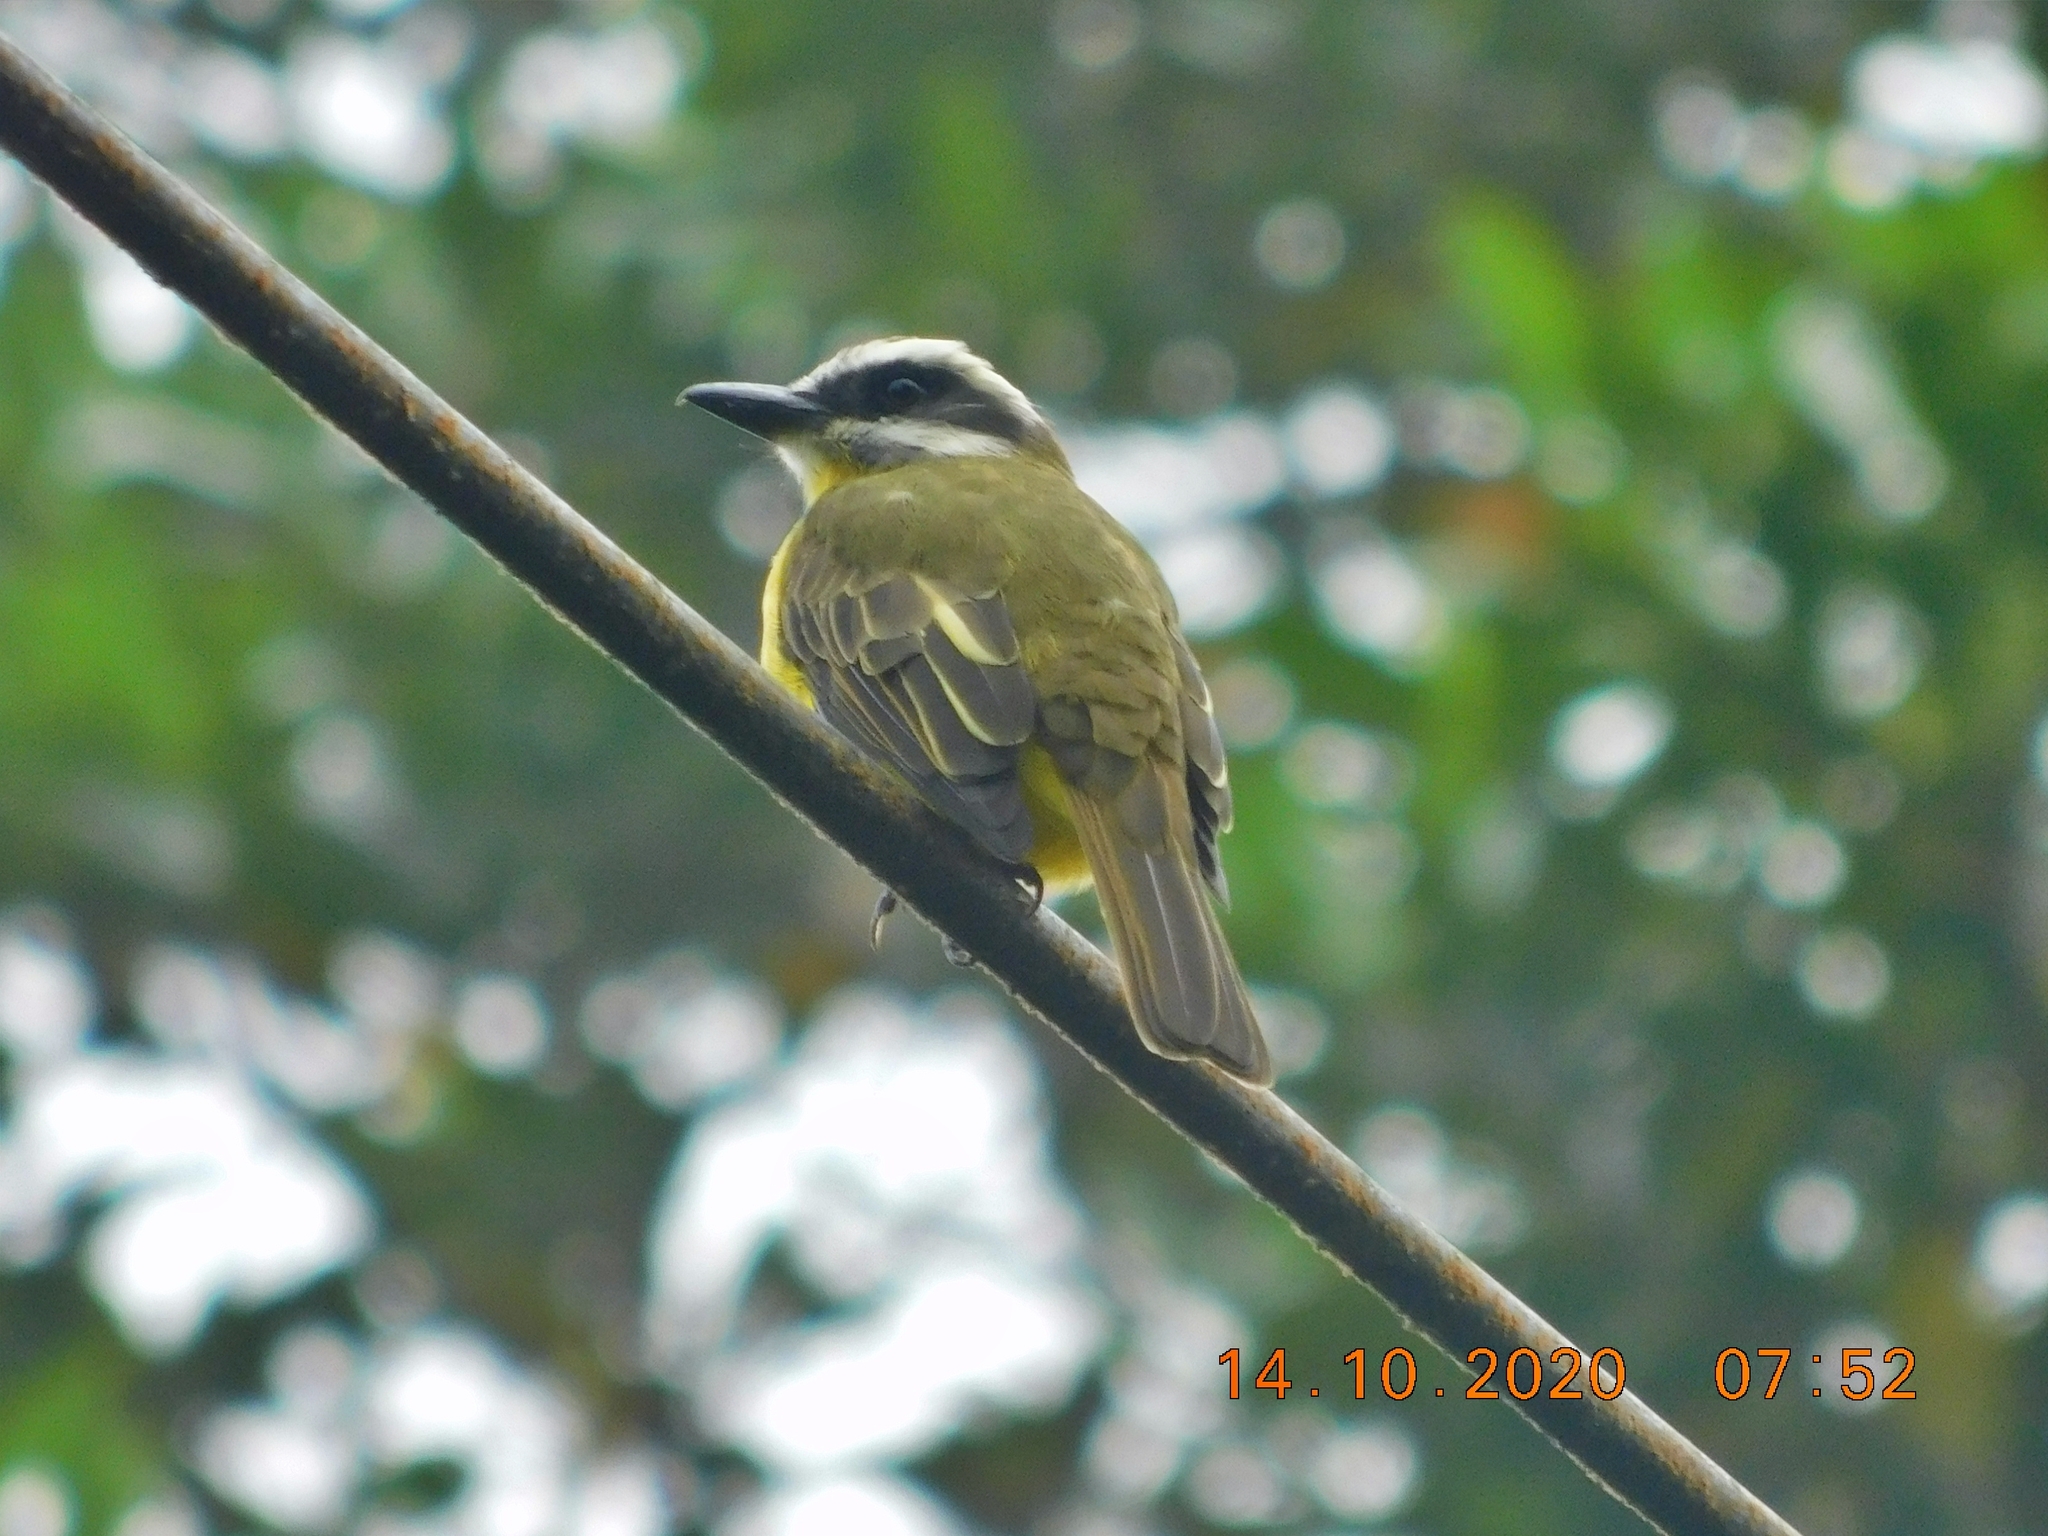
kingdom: Animalia
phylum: Chordata
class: Aves
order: Passeriformes
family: Tyrannidae
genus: Myiodynastes
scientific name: Myiodynastes hemichrysus
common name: Golden-bellied flycatcher
